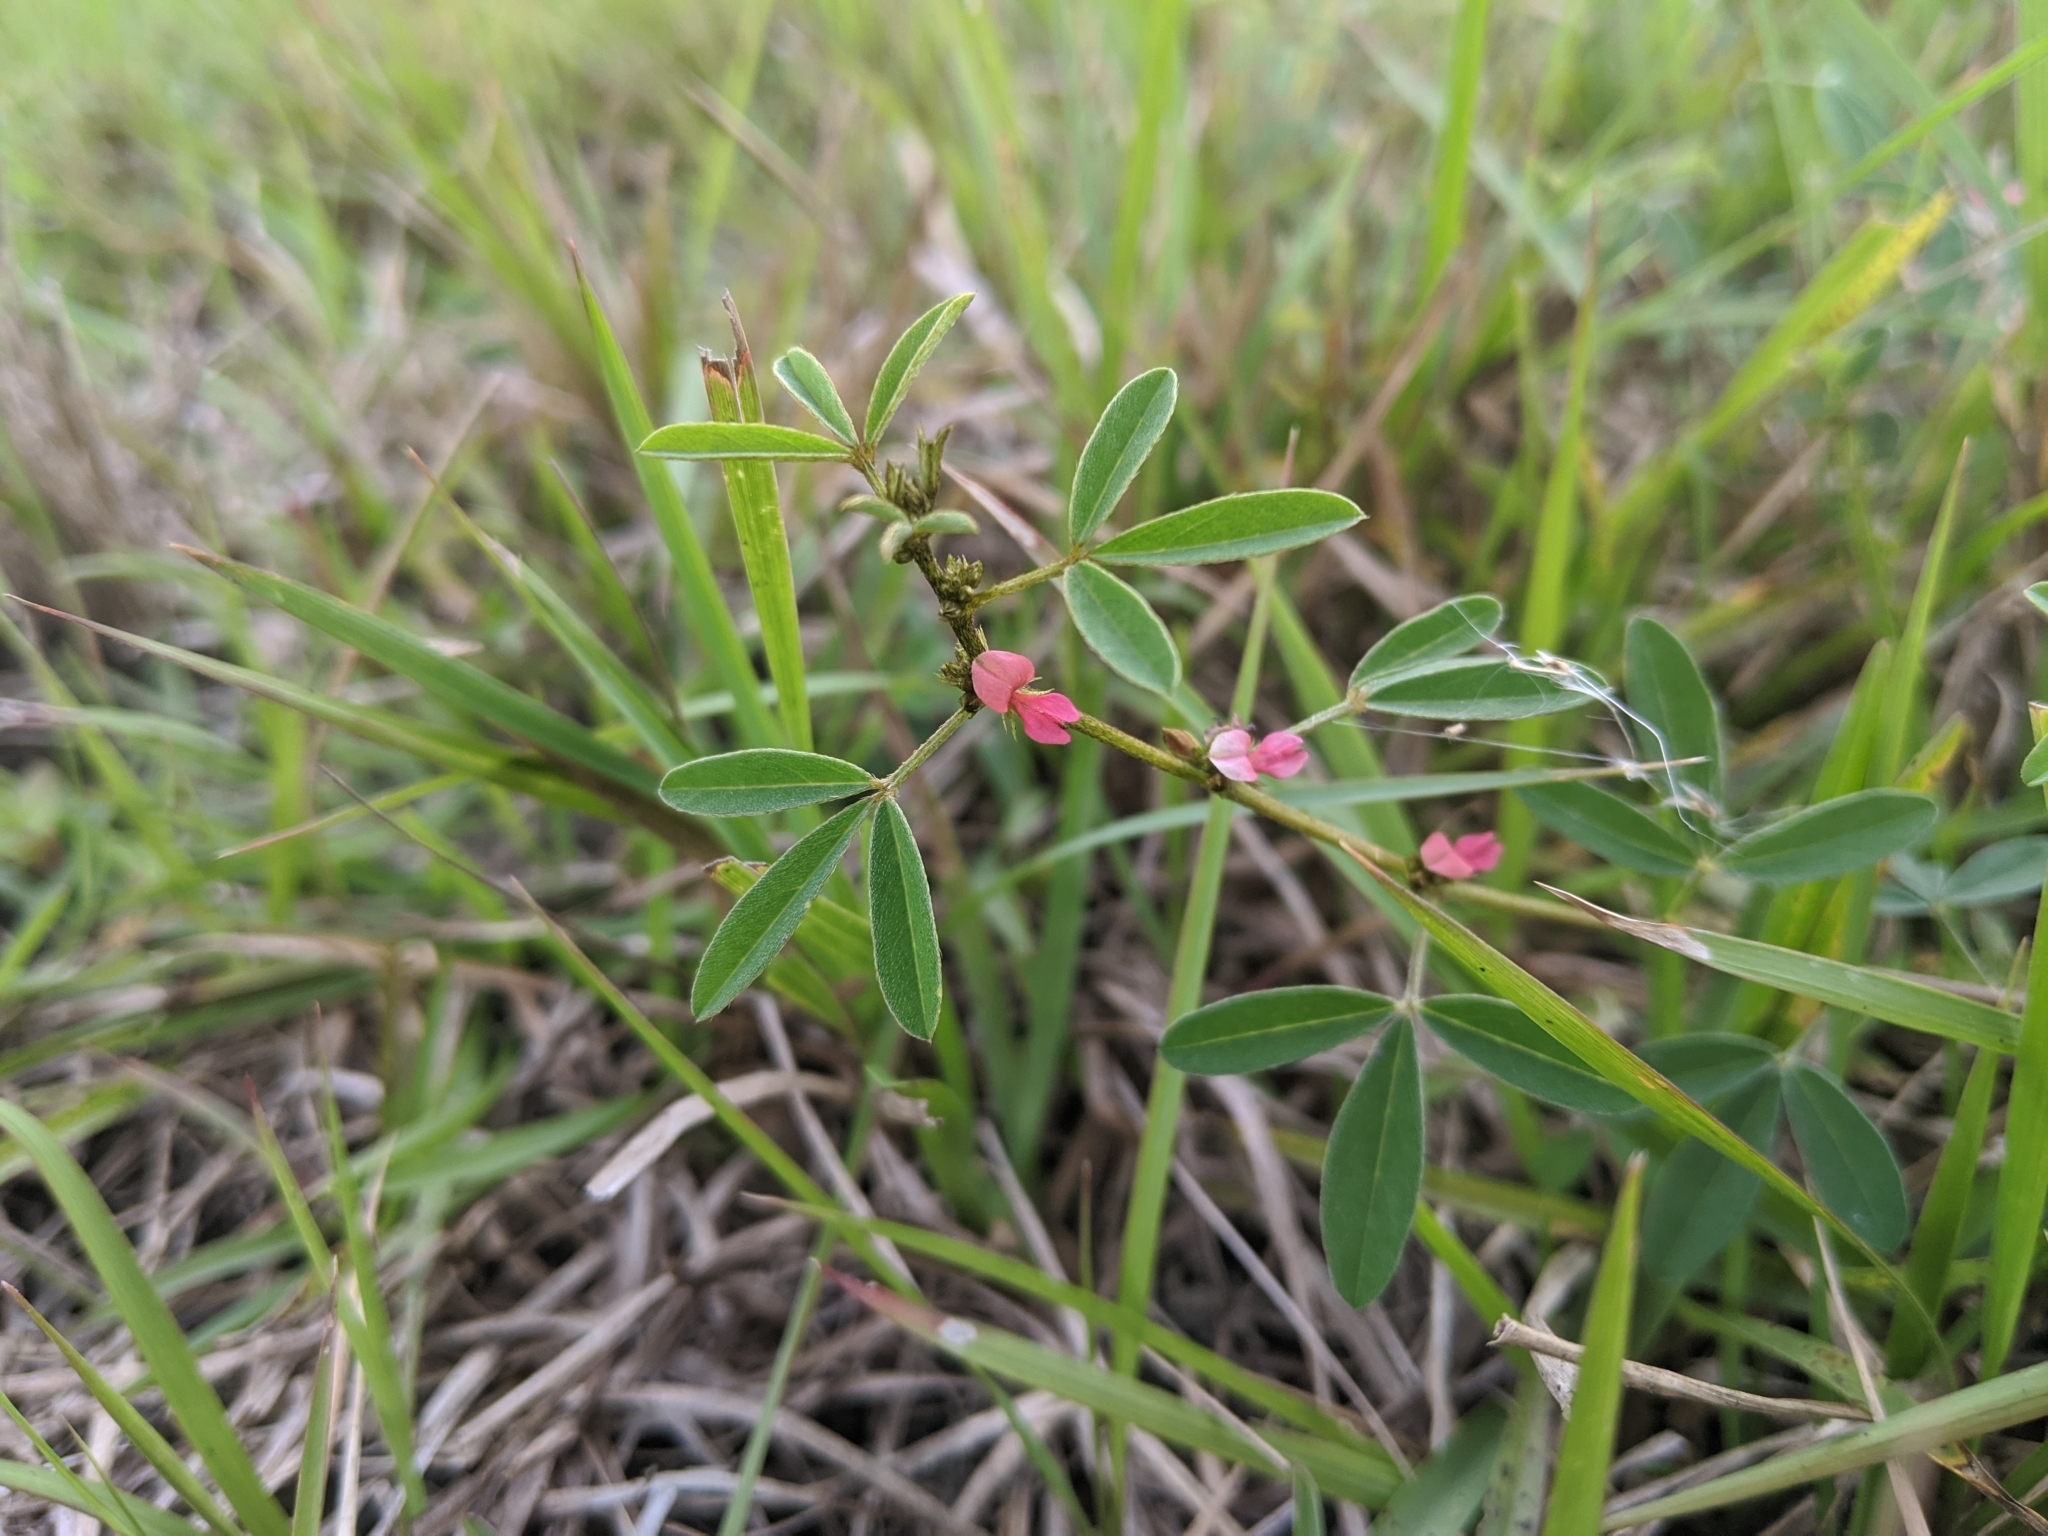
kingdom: Plantae
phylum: Tracheophyta
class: Magnoliopsida
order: Fabales
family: Fabaceae
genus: Indigofera
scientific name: Indigofera trifoliata
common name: Threeleaf indigo
